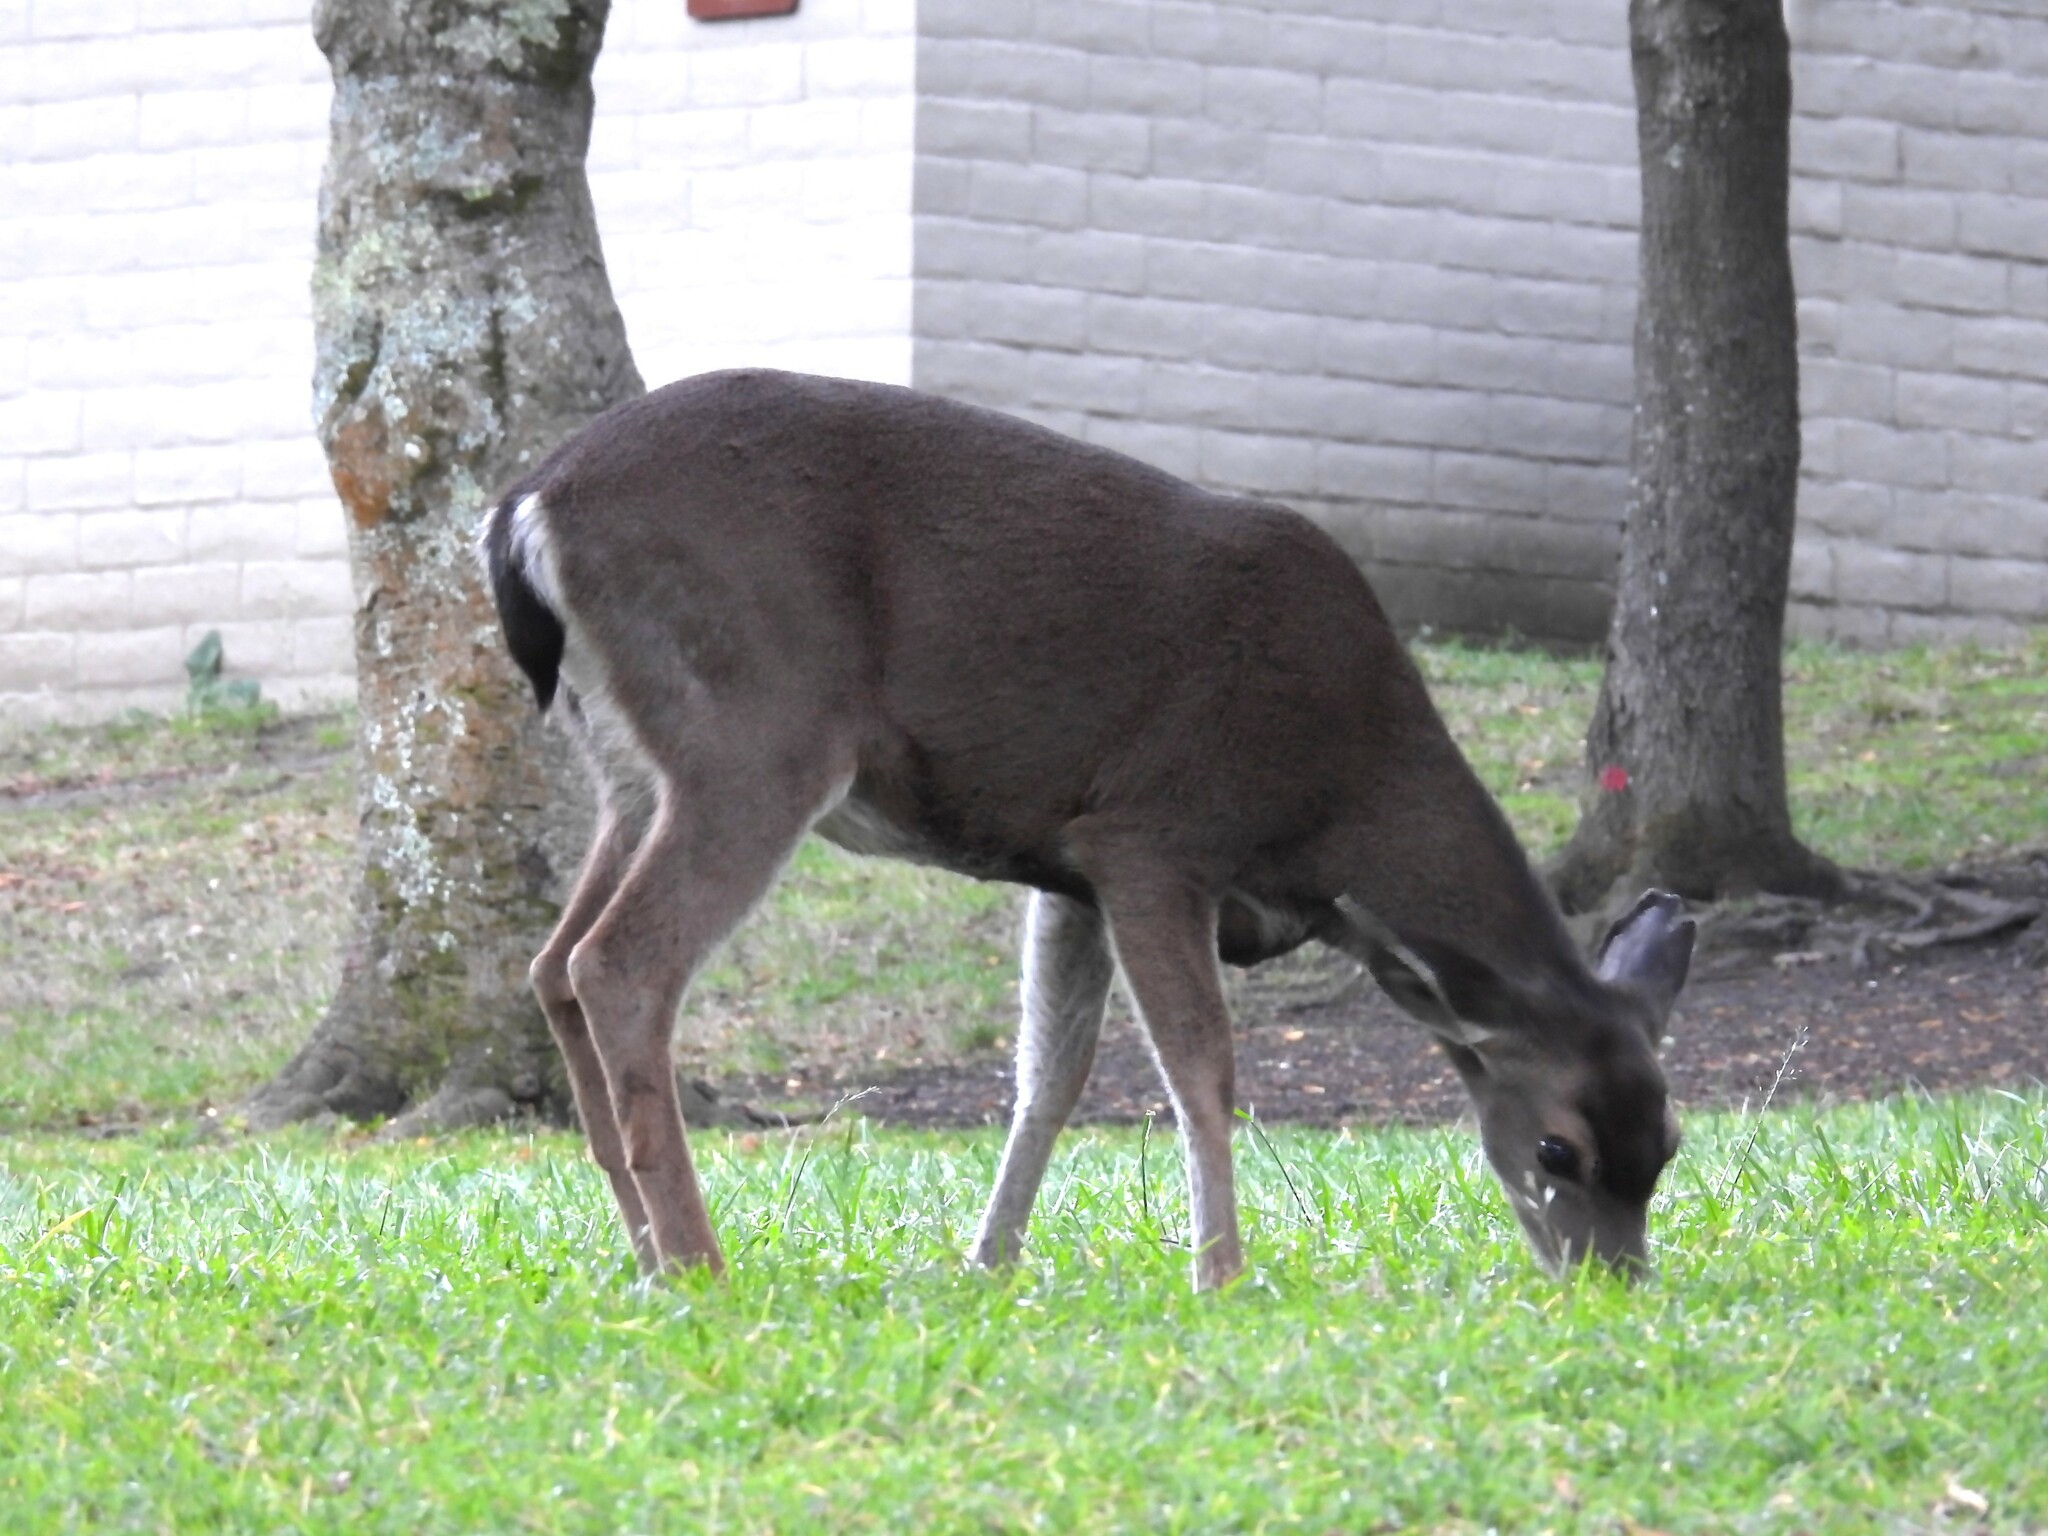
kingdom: Animalia
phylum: Chordata
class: Mammalia
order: Artiodactyla
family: Cervidae
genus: Odocoileus
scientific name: Odocoileus hemionus
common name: Mule deer
